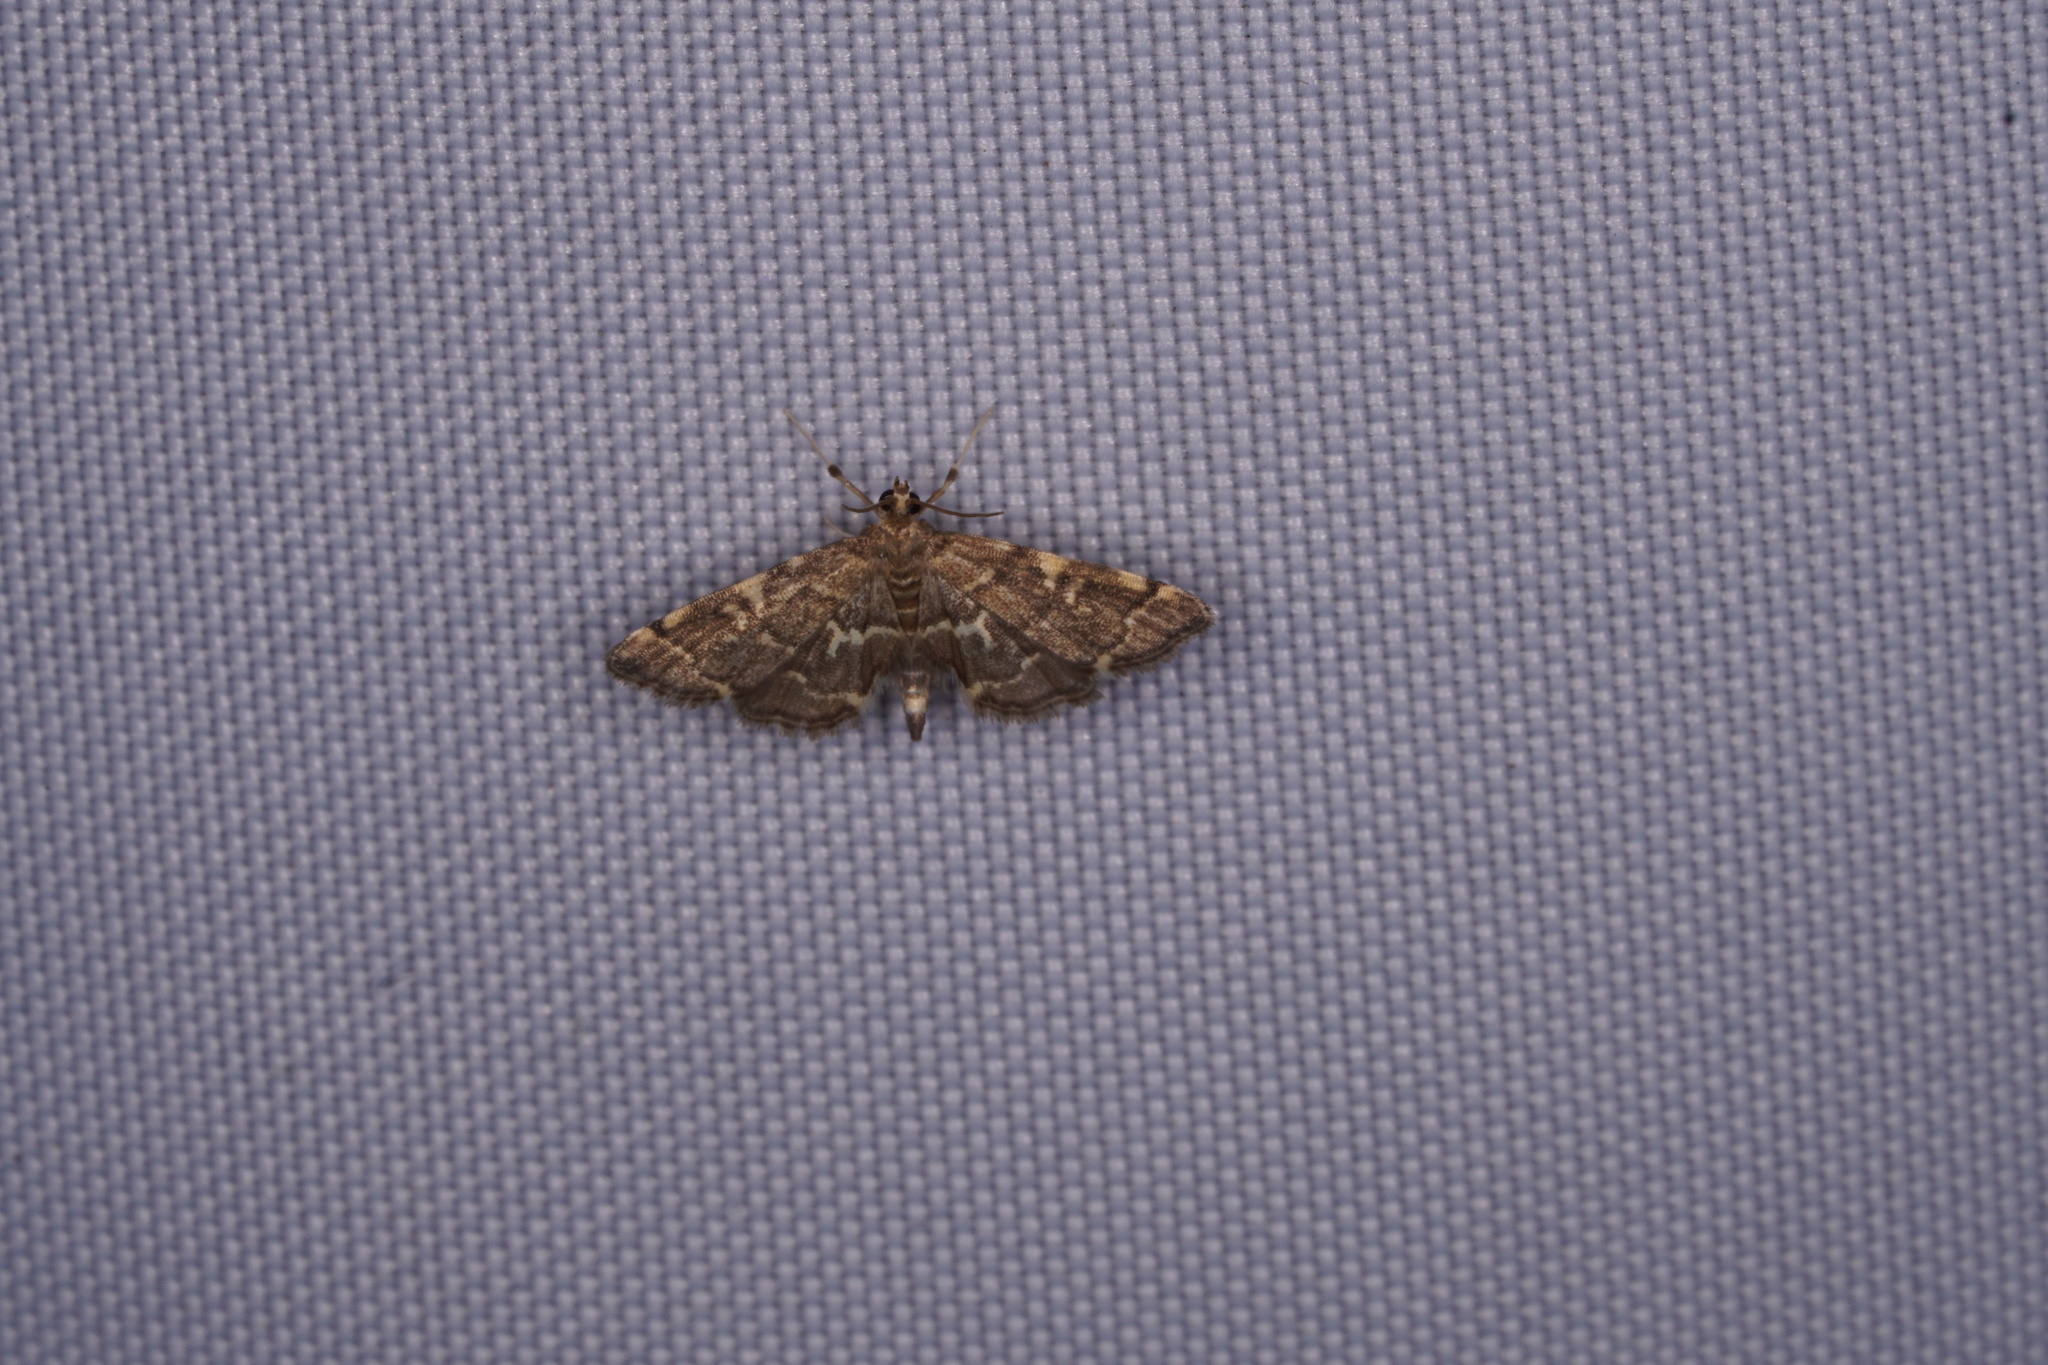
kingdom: Animalia
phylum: Arthropoda
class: Insecta
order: Lepidoptera
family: Crambidae
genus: Anageshna
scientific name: Anageshna primordialis
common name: Yellow-spotted webworm moth
